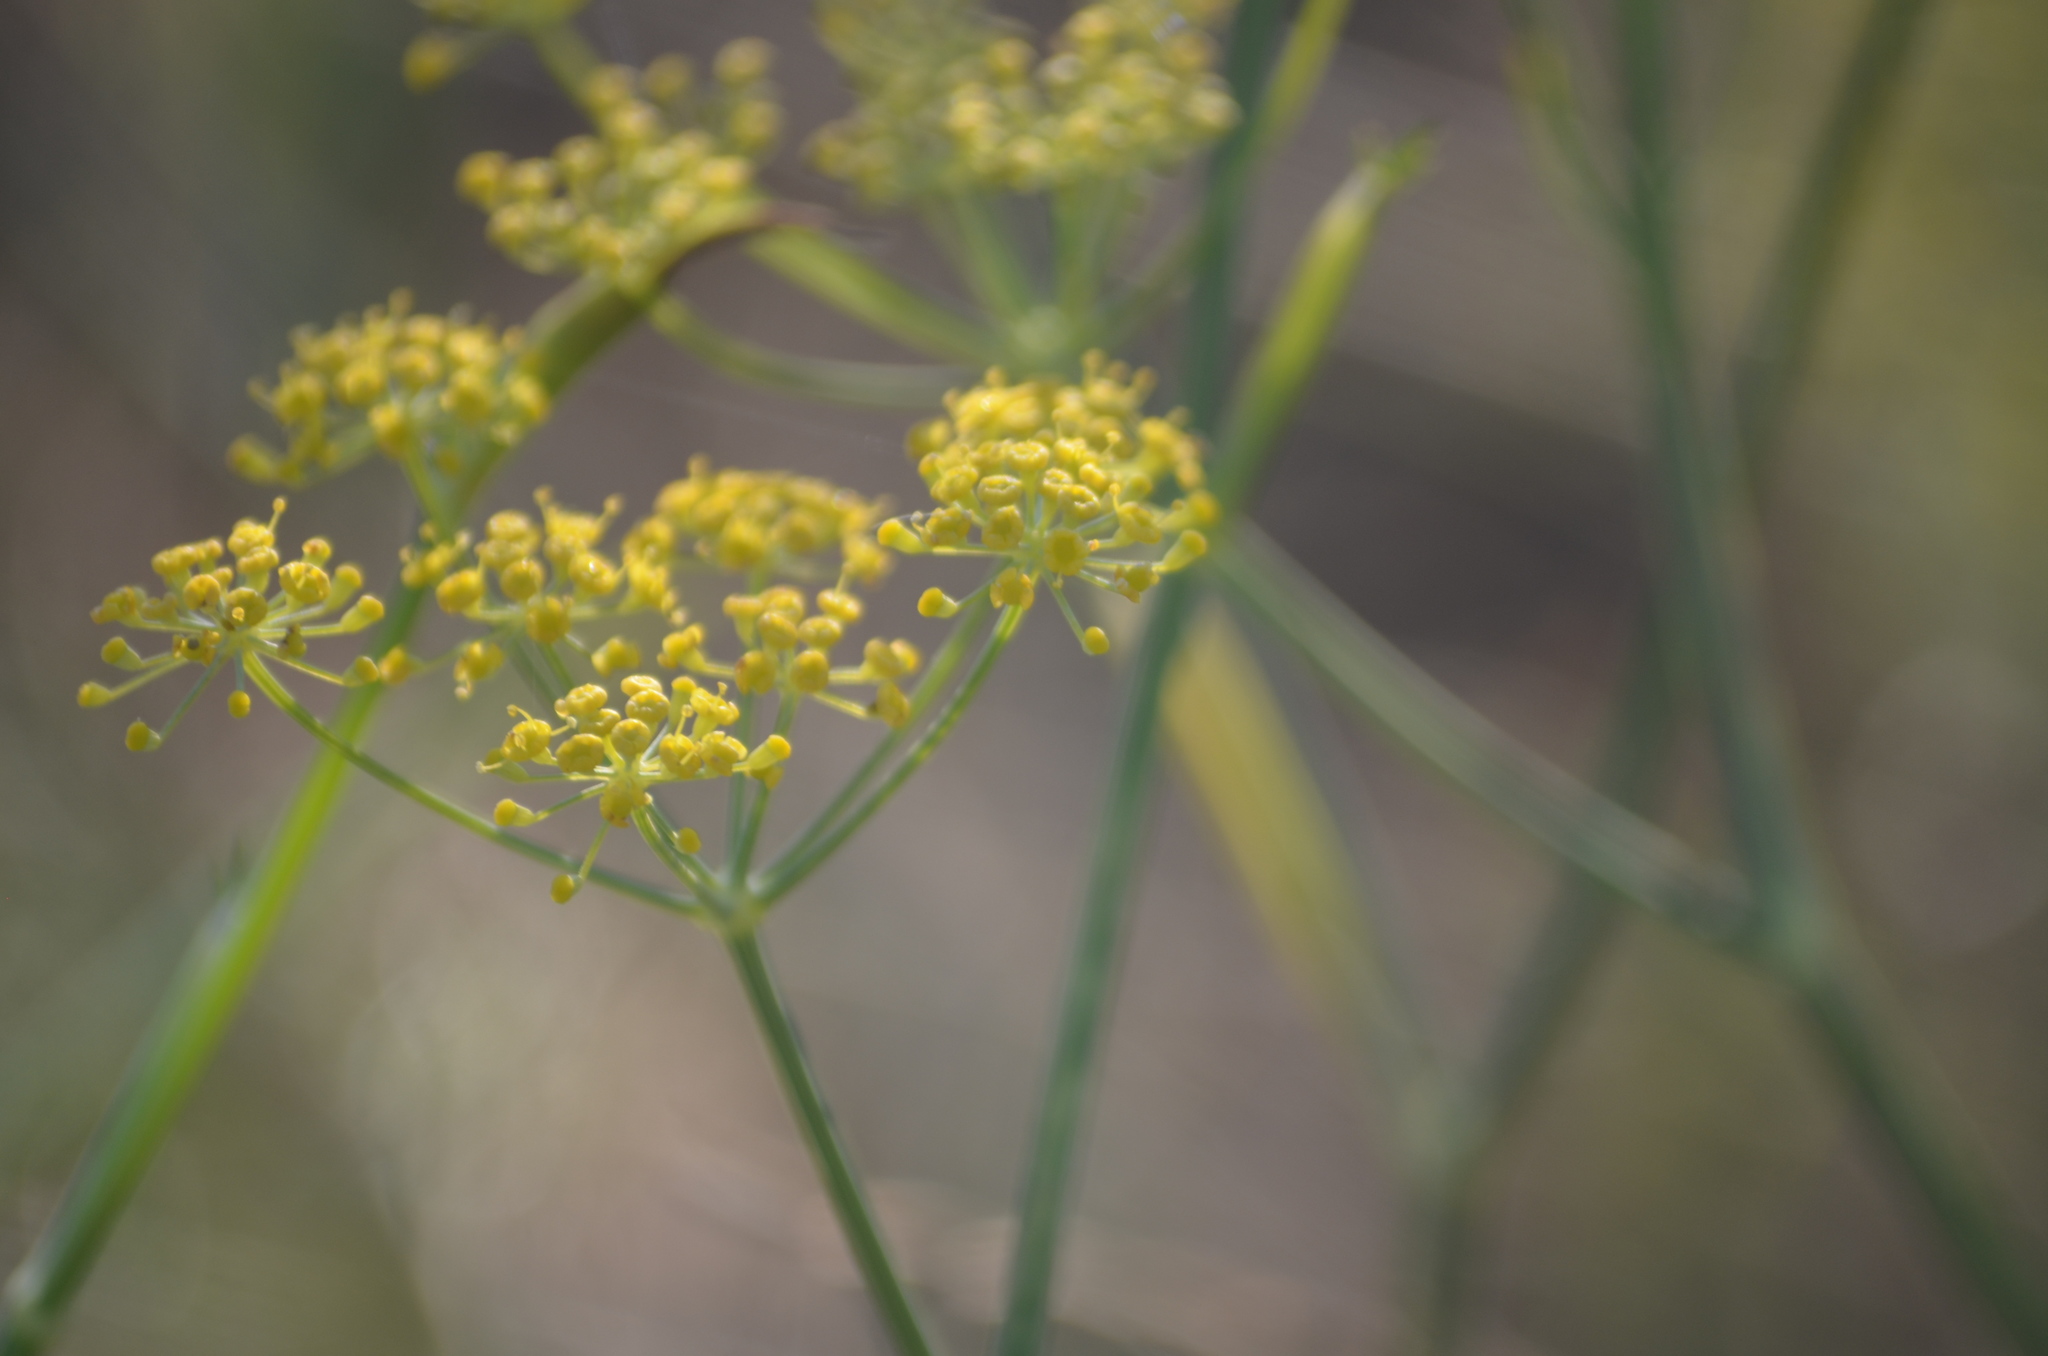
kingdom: Plantae
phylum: Tracheophyta
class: Magnoliopsida
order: Apiales
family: Apiaceae
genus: Foeniculum
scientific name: Foeniculum vulgare
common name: Fennel
